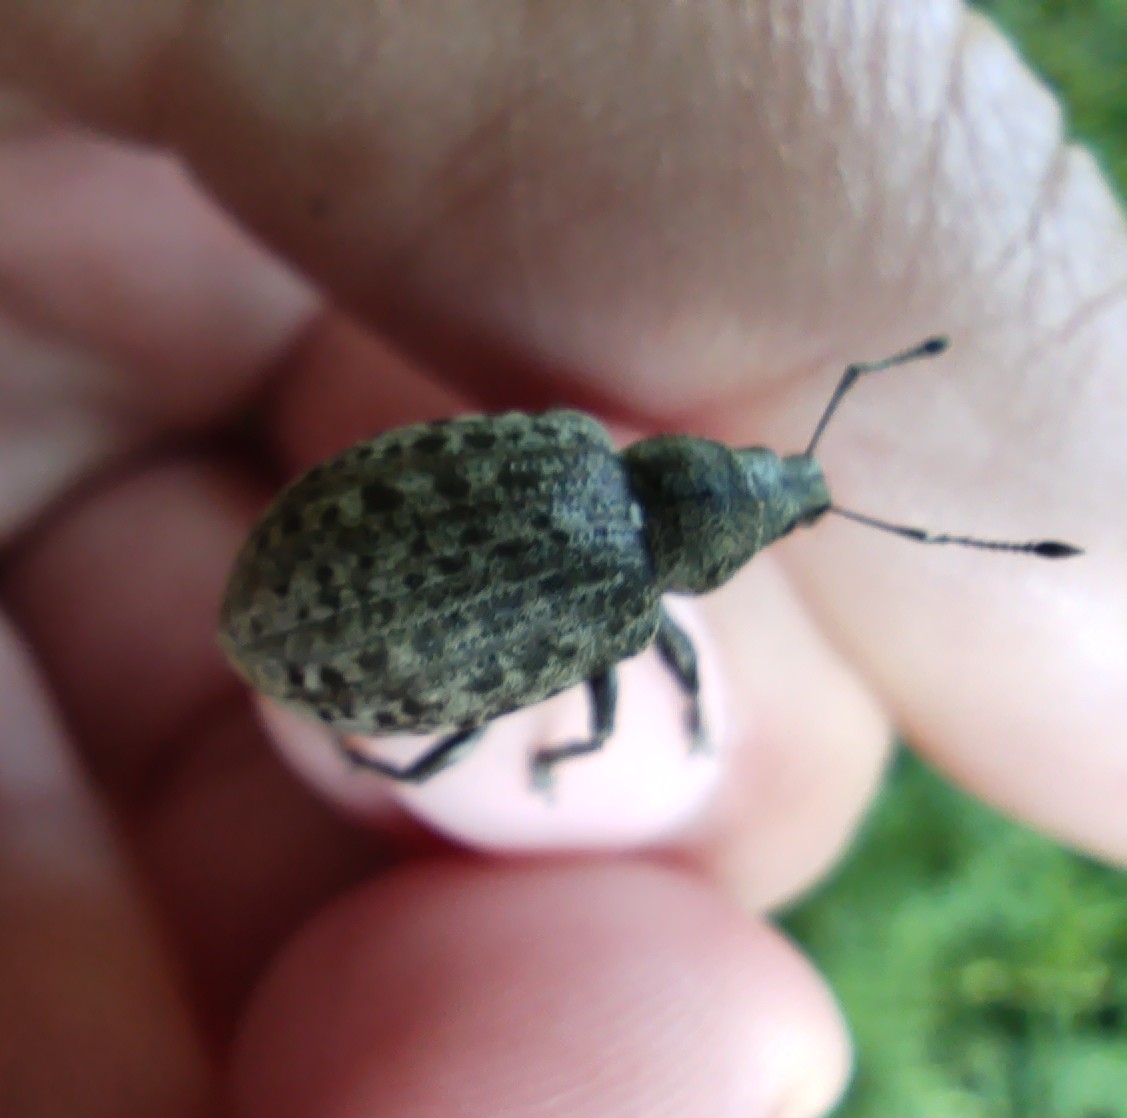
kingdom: Animalia
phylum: Arthropoda
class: Insecta
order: Coleoptera
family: Curculionidae
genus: Liophloeus
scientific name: Liophloeus tessulatus
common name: Weevil
